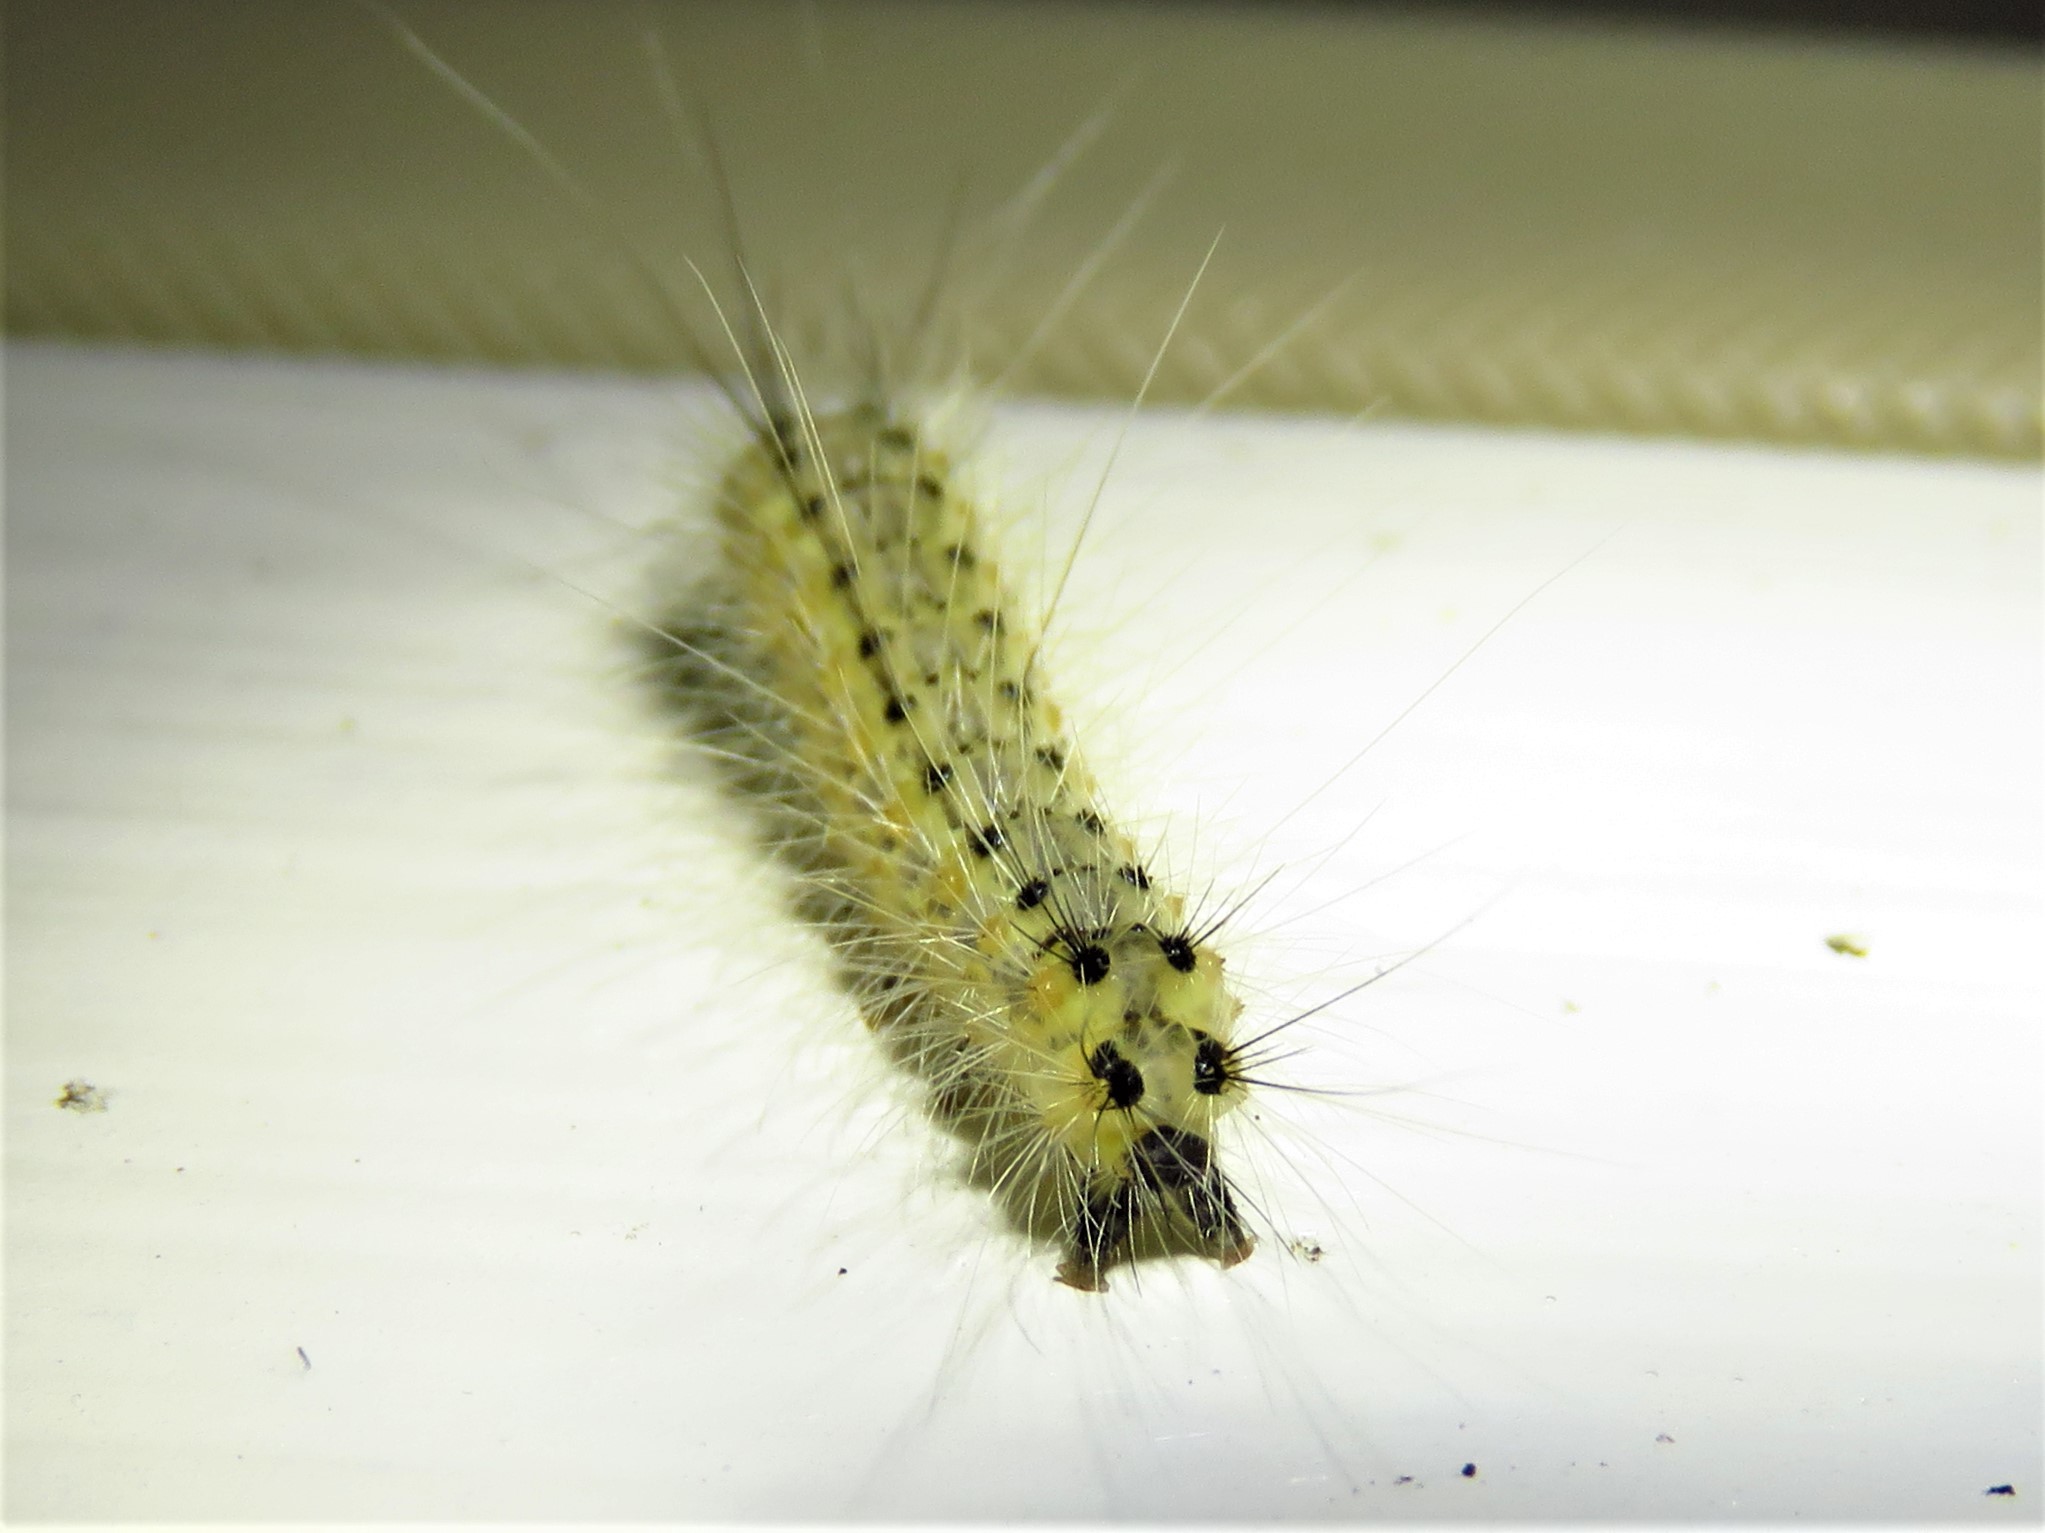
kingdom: Animalia
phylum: Arthropoda
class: Insecta
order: Lepidoptera
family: Erebidae
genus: Hyphantria
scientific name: Hyphantria cunea
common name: American white moth
